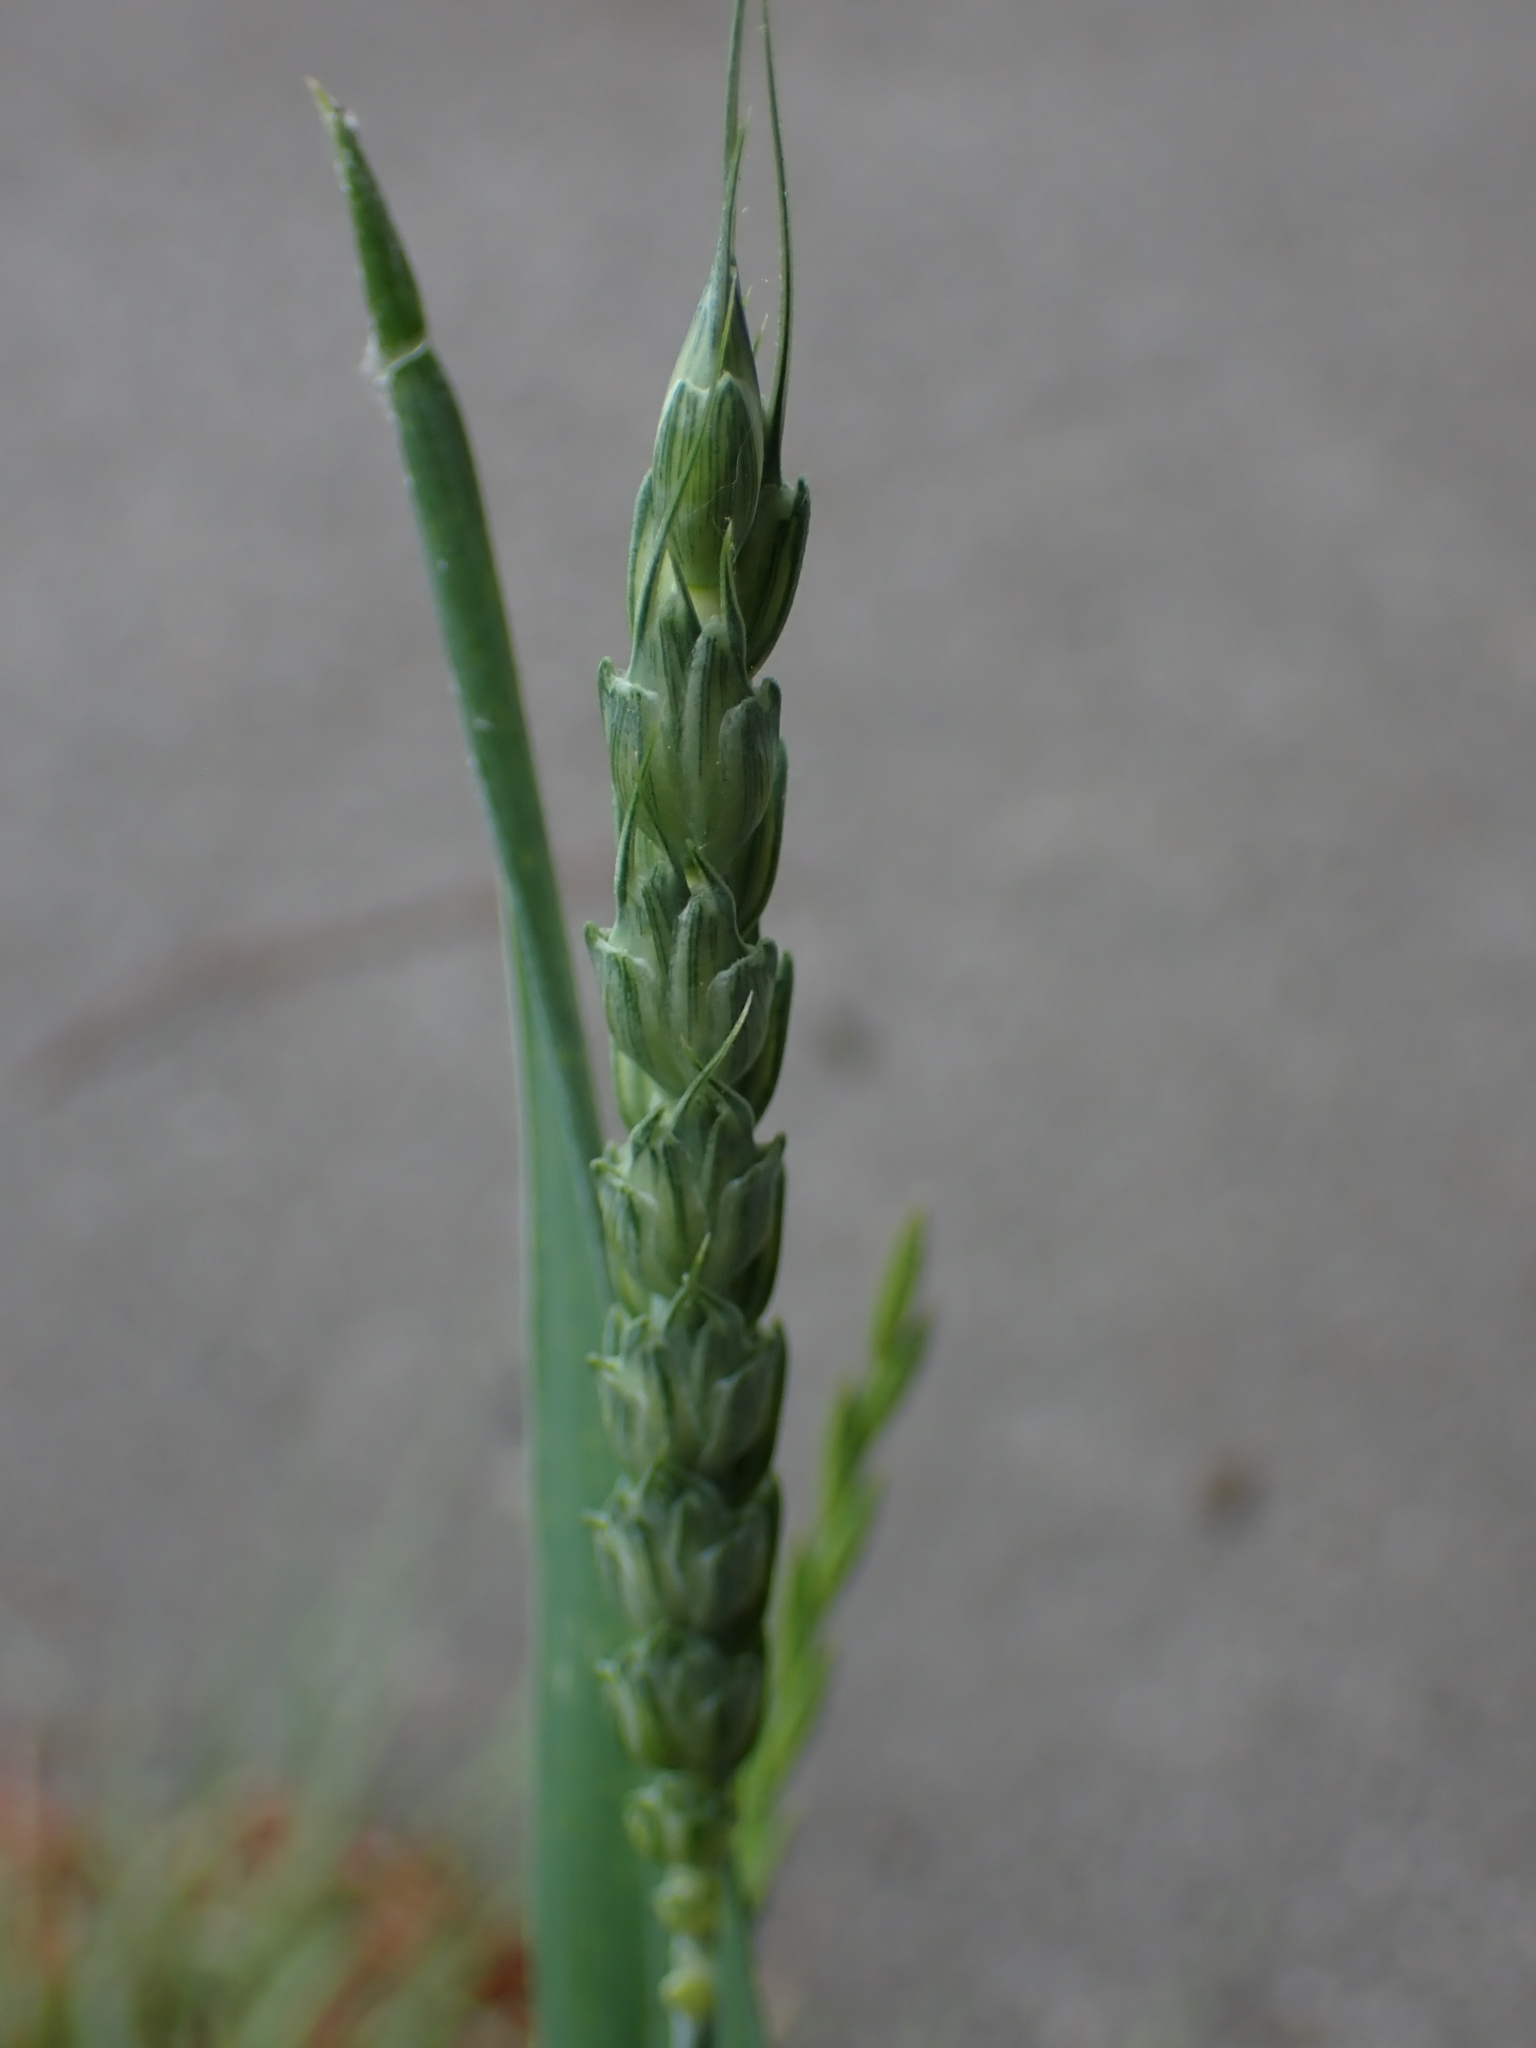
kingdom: Plantae
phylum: Tracheophyta
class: Liliopsida
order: Poales
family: Poaceae
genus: Triticum
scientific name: Triticum aestivum
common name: Common wheat
